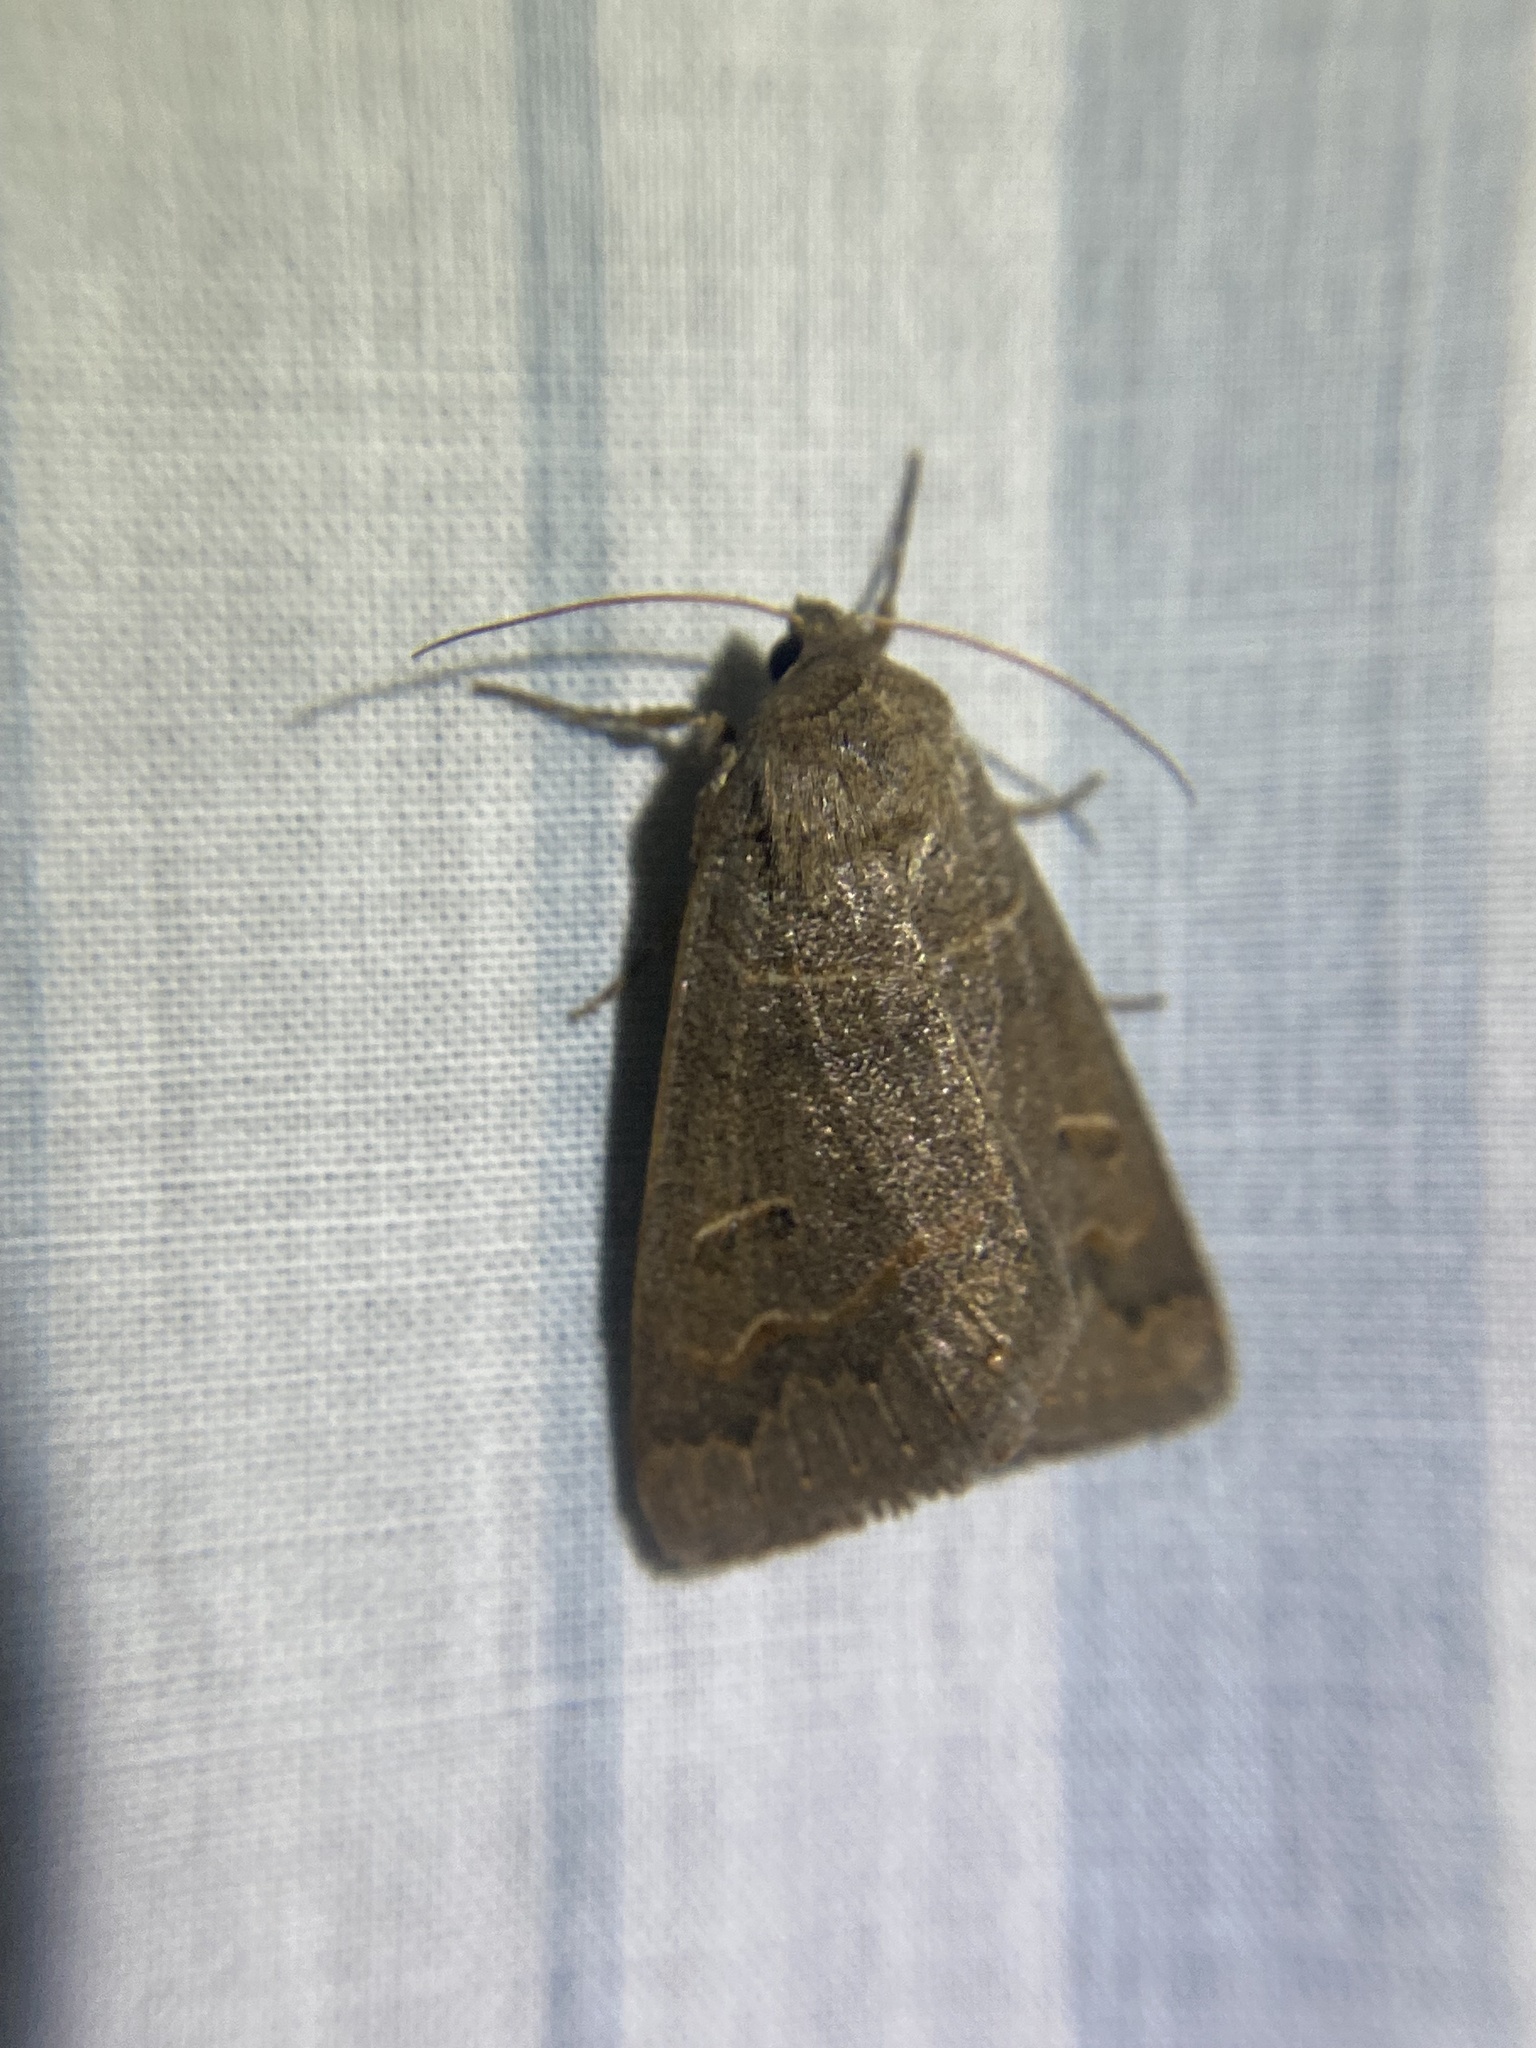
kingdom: Animalia
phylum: Arthropoda
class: Insecta
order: Lepidoptera
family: Erebidae
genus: Phoberia
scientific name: Phoberia atomaris
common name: Common oak moth
